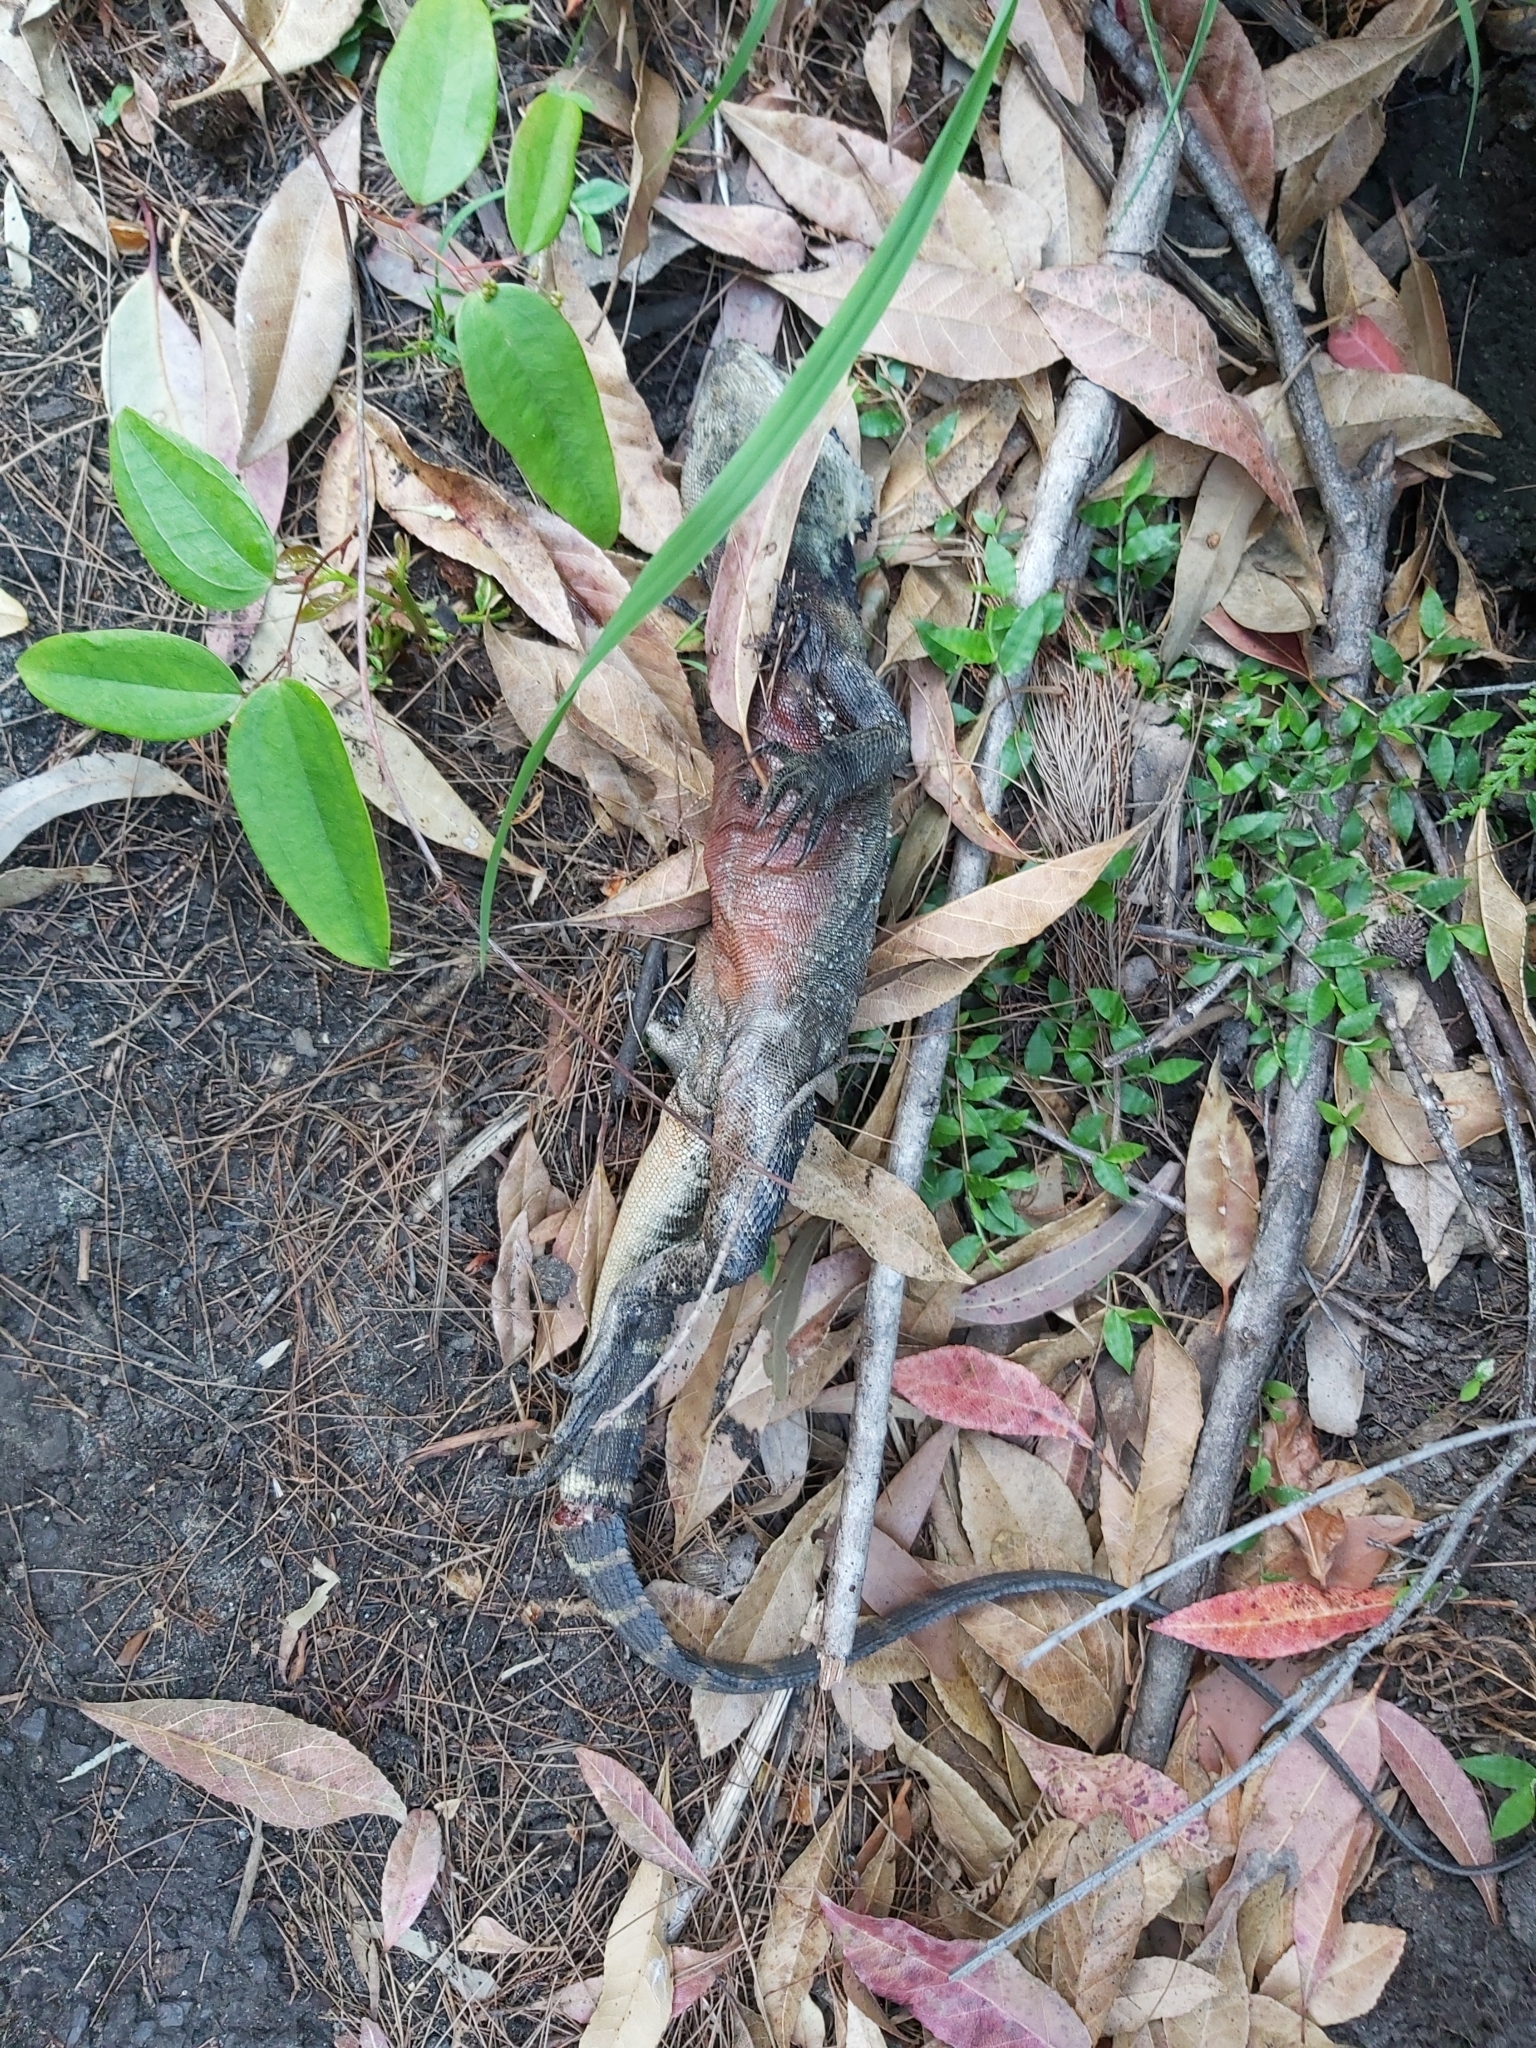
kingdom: Animalia
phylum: Chordata
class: Squamata
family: Agamidae
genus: Intellagama
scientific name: Intellagama lesueurii
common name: Eastern water dragon
